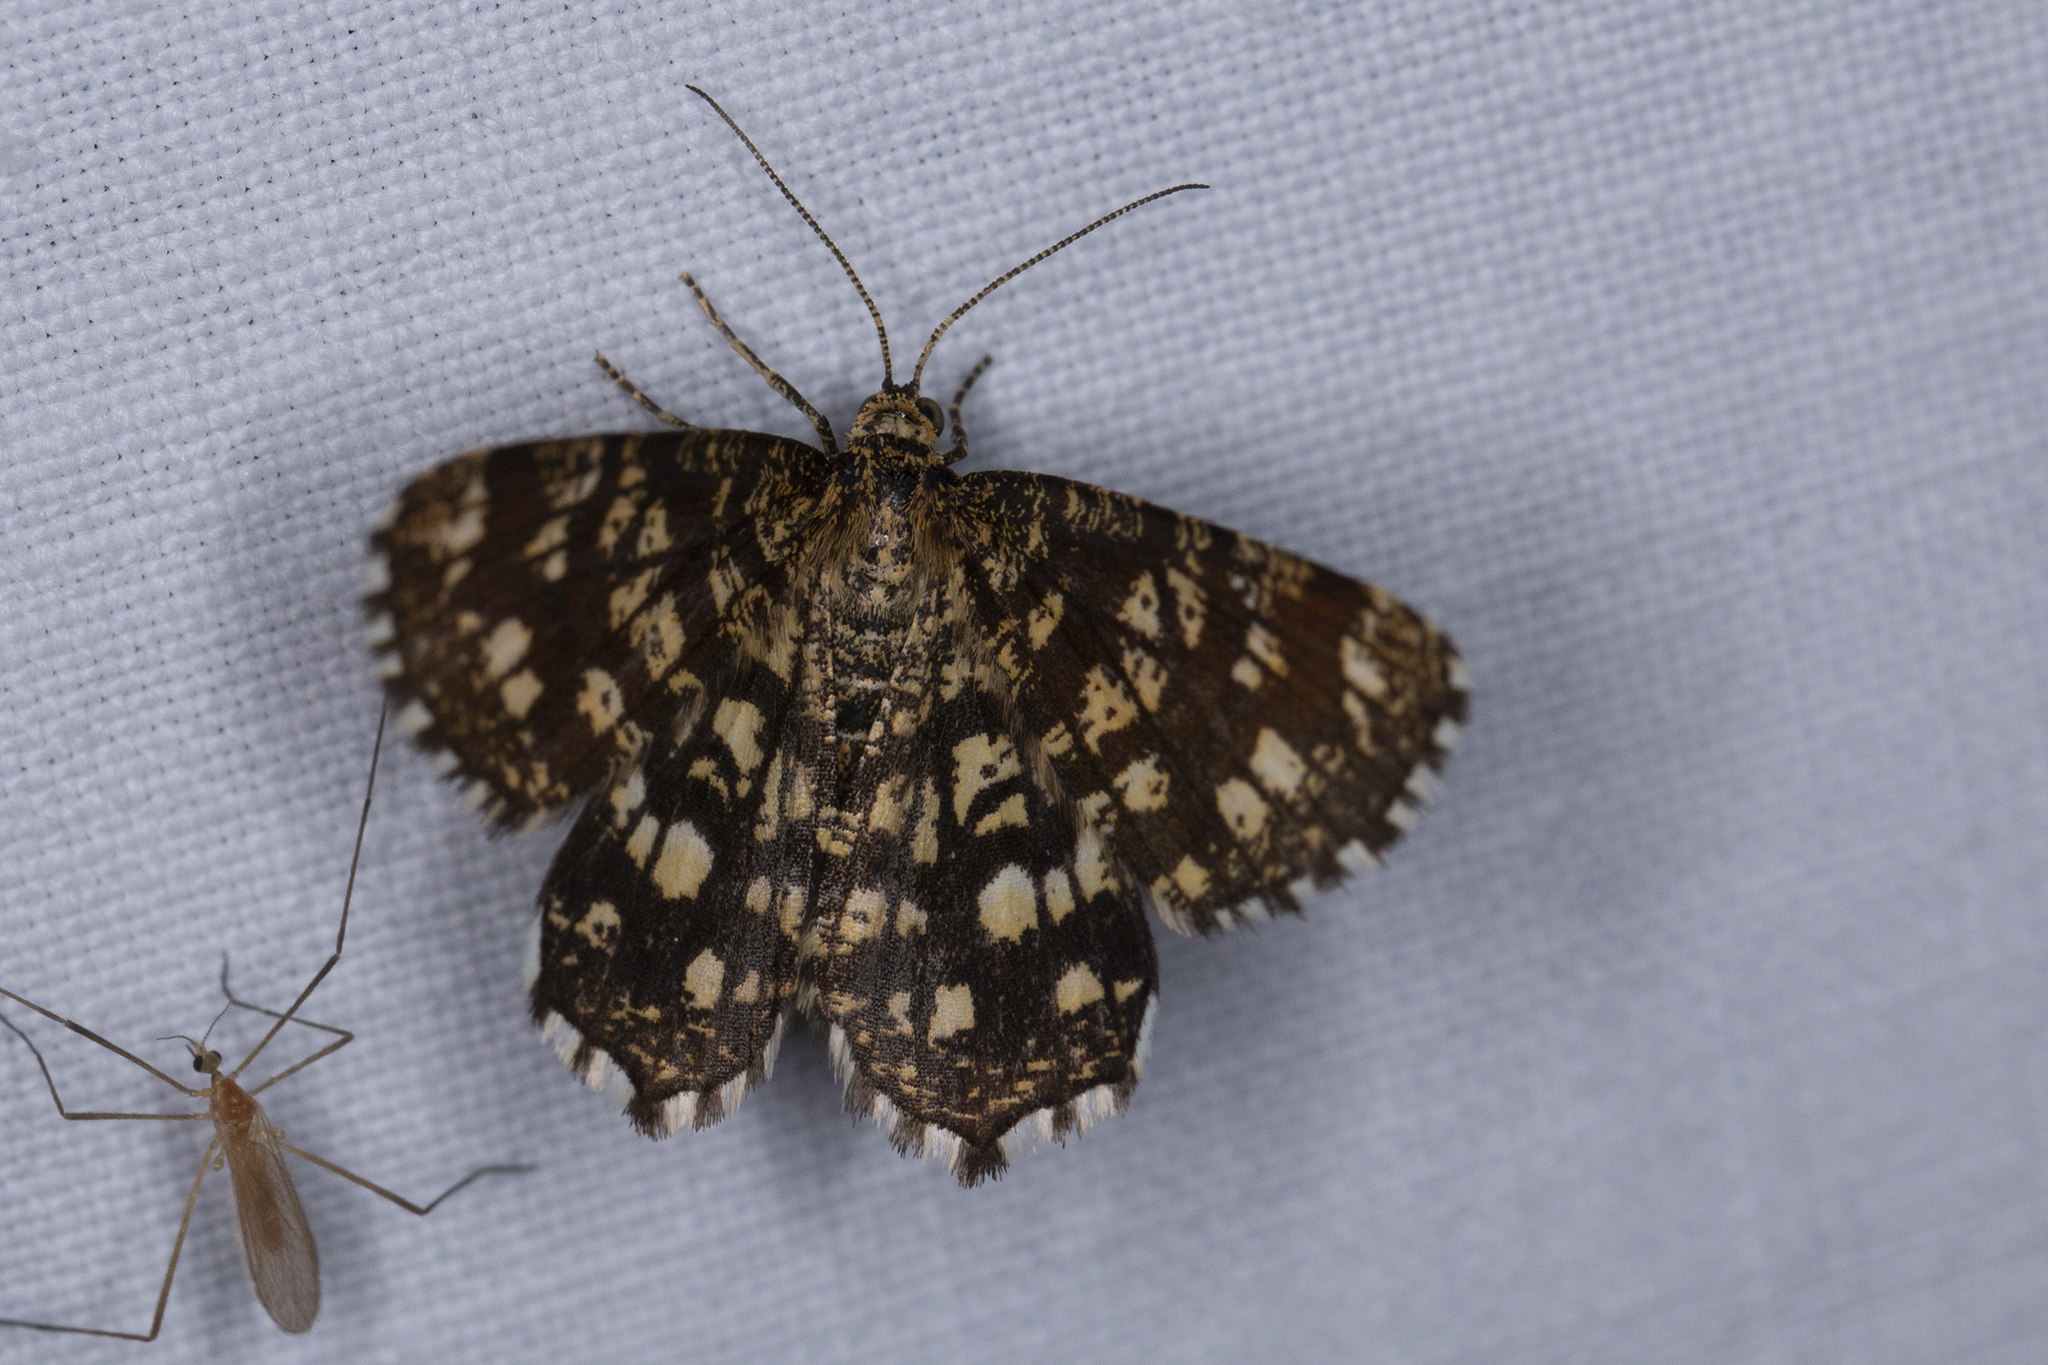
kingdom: Animalia
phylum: Arthropoda
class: Insecta
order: Lepidoptera
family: Geometridae
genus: Chiasmia
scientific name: Chiasmia clathrata
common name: Latticed heath
